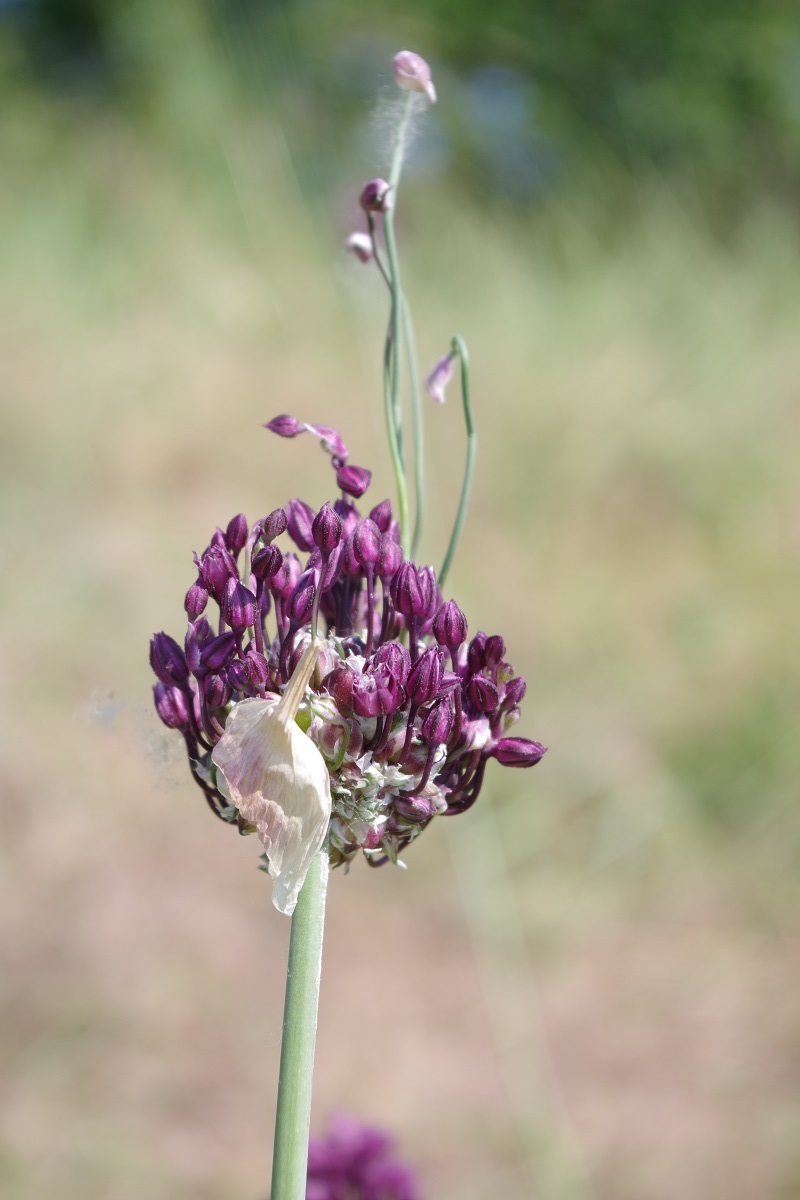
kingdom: Plantae
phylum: Tracheophyta
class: Liliopsida
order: Asparagales
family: Amaryllidaceae
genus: Allium
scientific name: Allium scorodoprasum
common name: Sand leek
